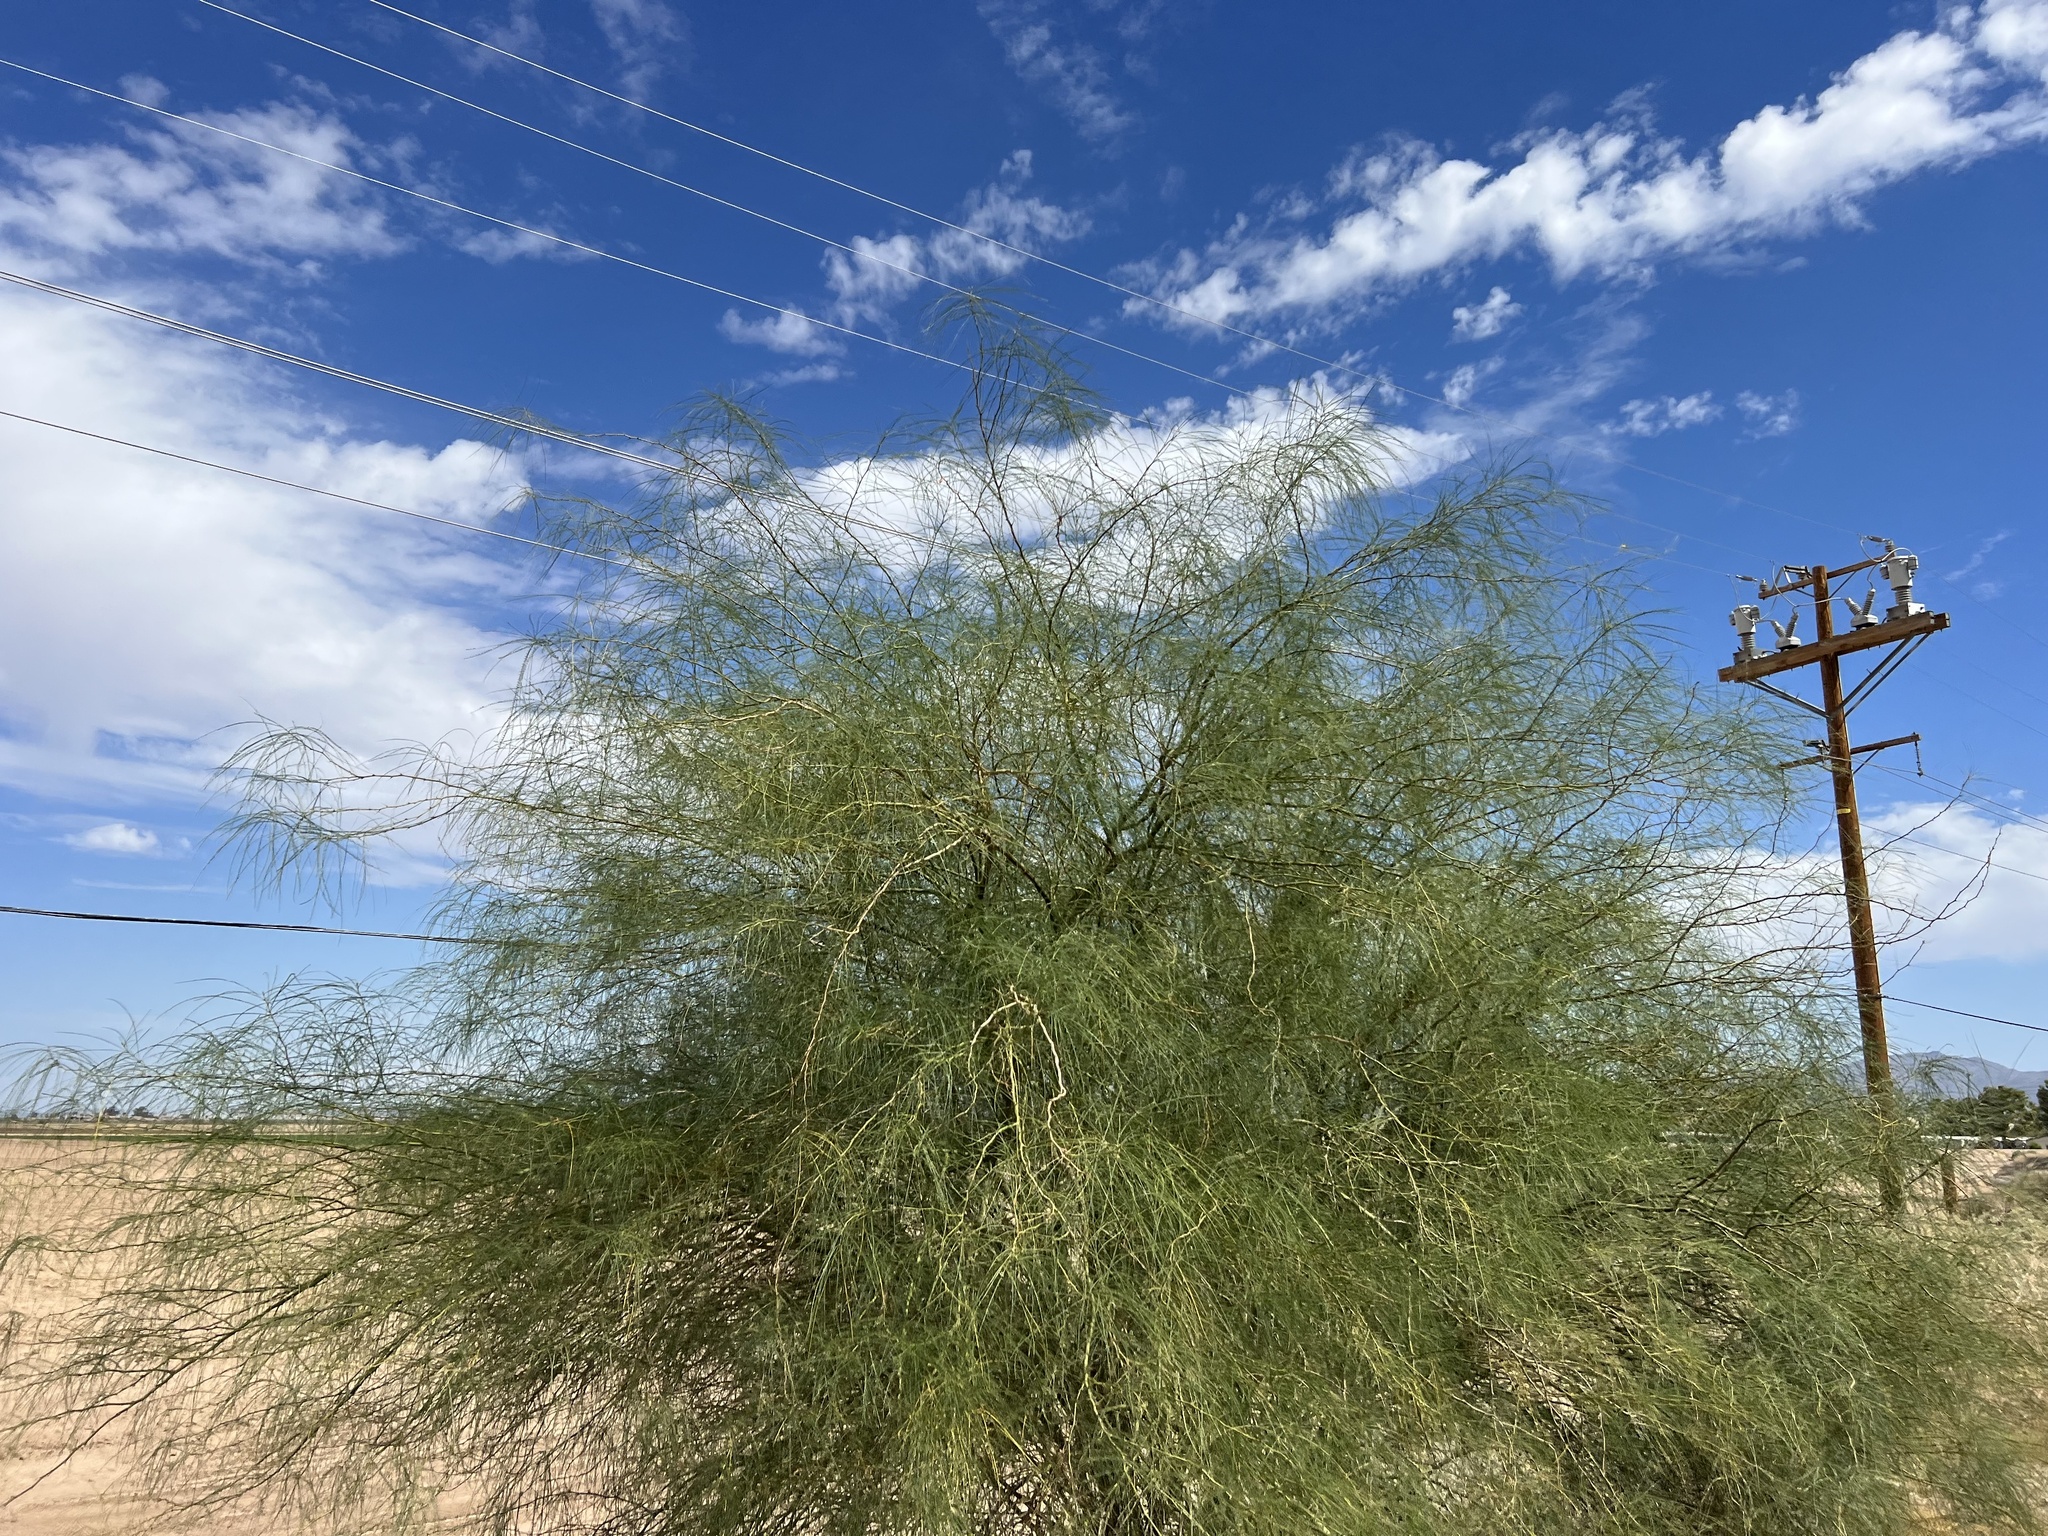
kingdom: Plantae
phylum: Tracheophyta
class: Magnoliopsida
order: Fabales
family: Fabaceae
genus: Parkinsonia
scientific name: Parkinsonia aculeata
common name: Jerusalem thorn
